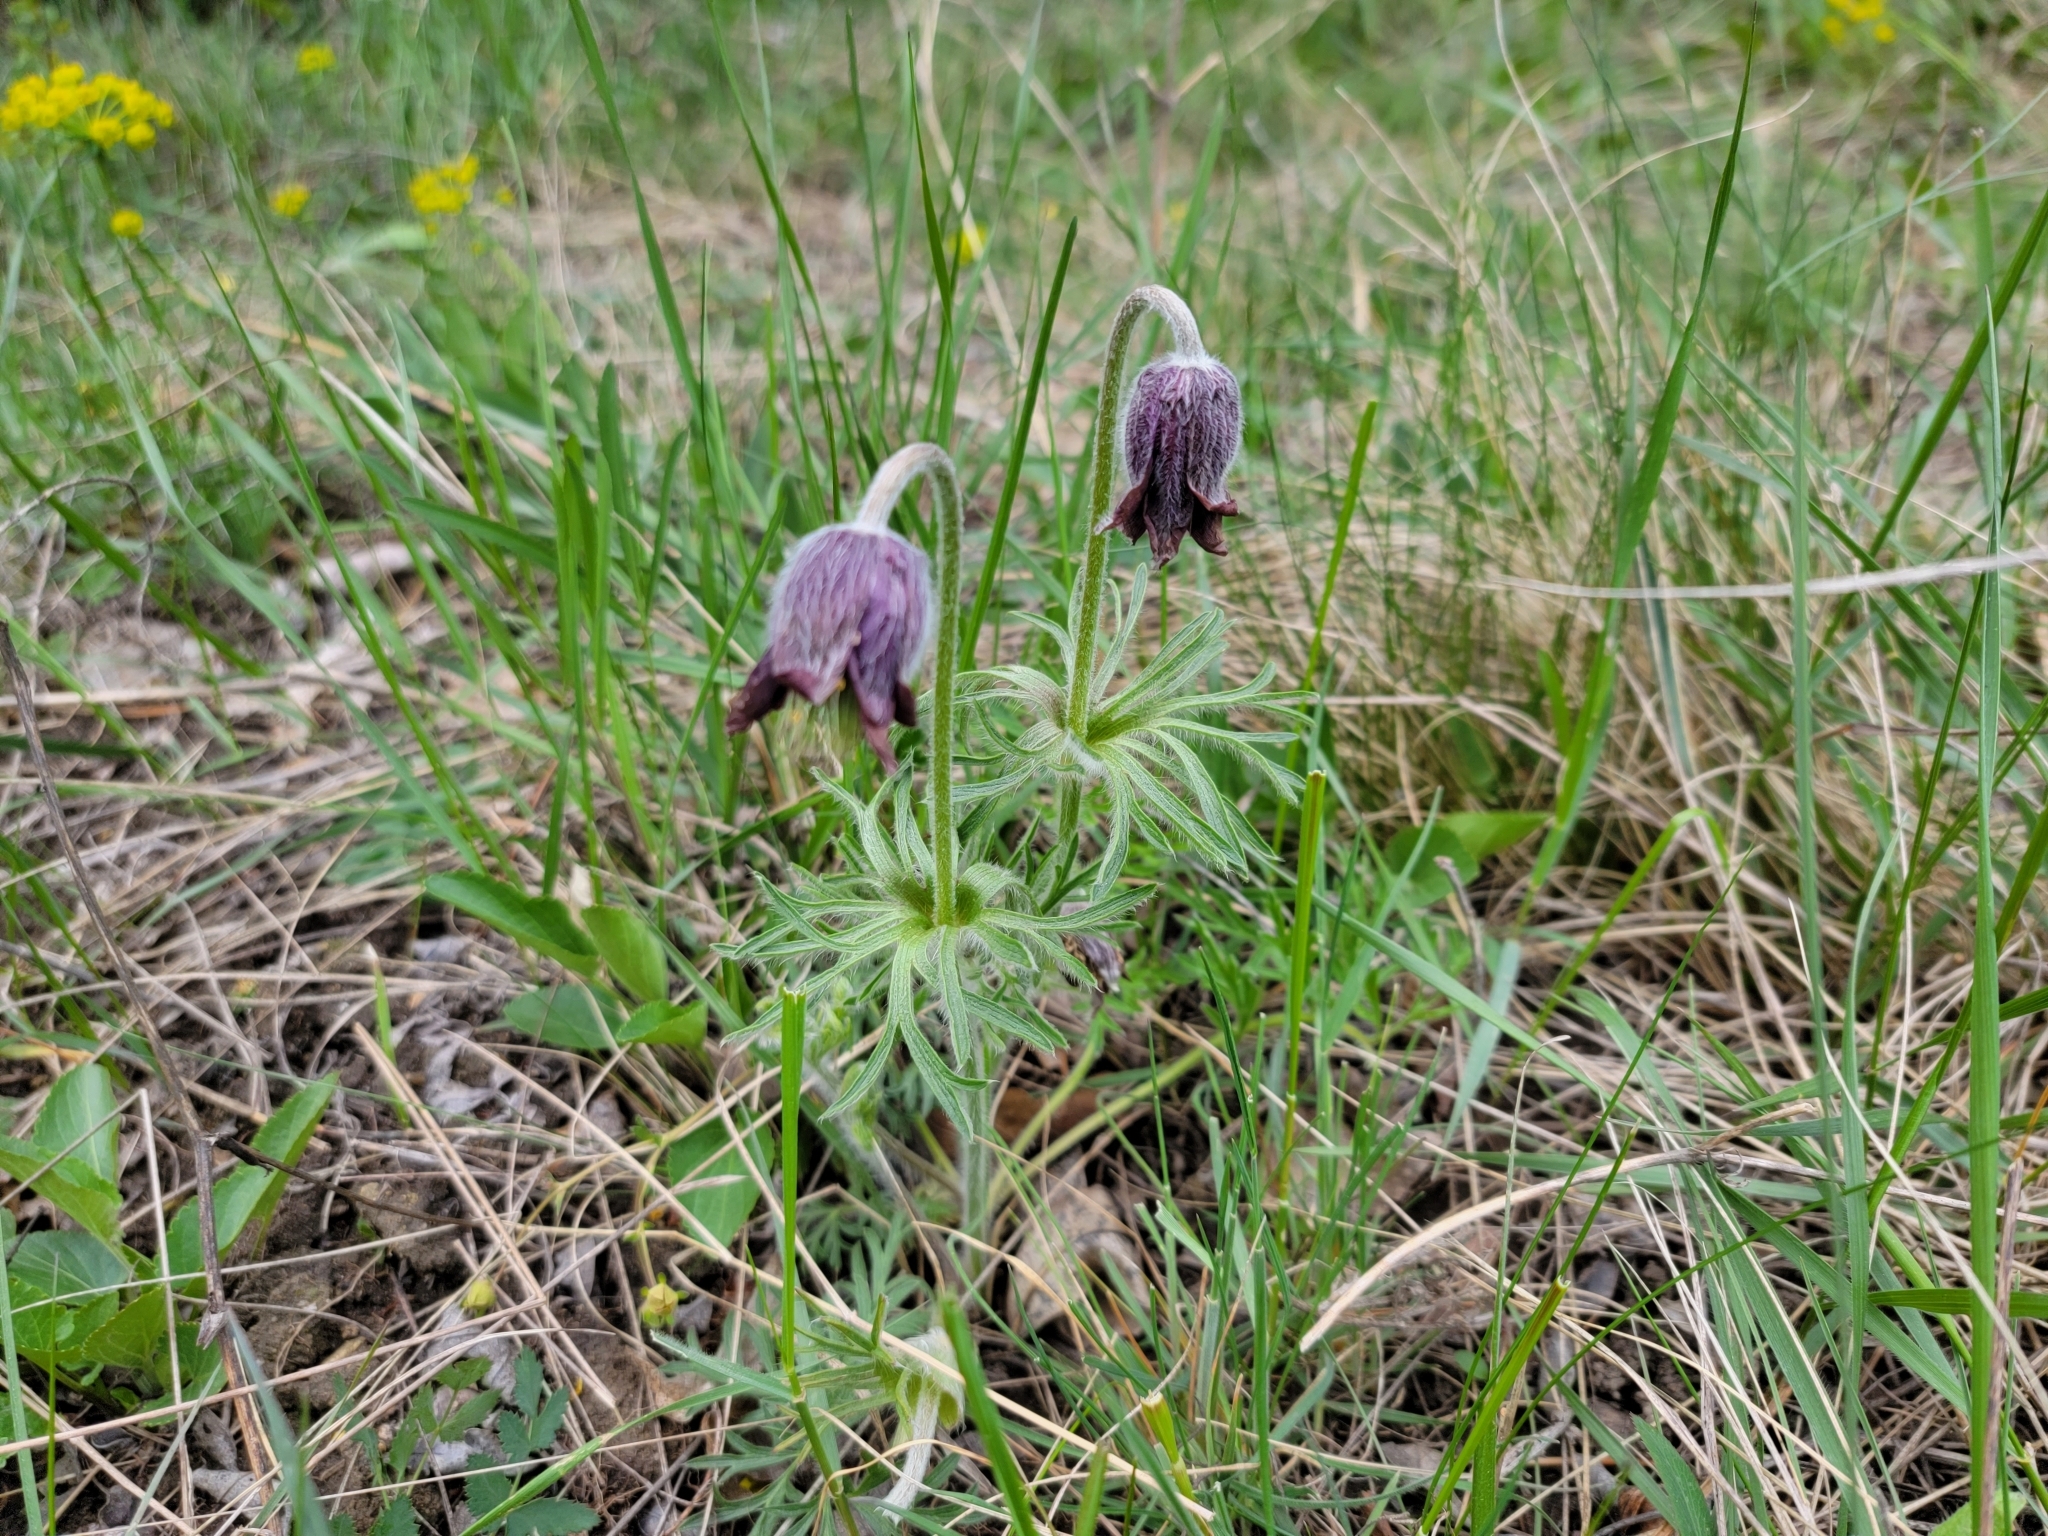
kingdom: Plantae
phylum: Tracheophyta
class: Magnoliopsida
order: Ranunculales
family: Ranunculaceae
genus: Pulsatilla
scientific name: Pulsatilla pratensis
